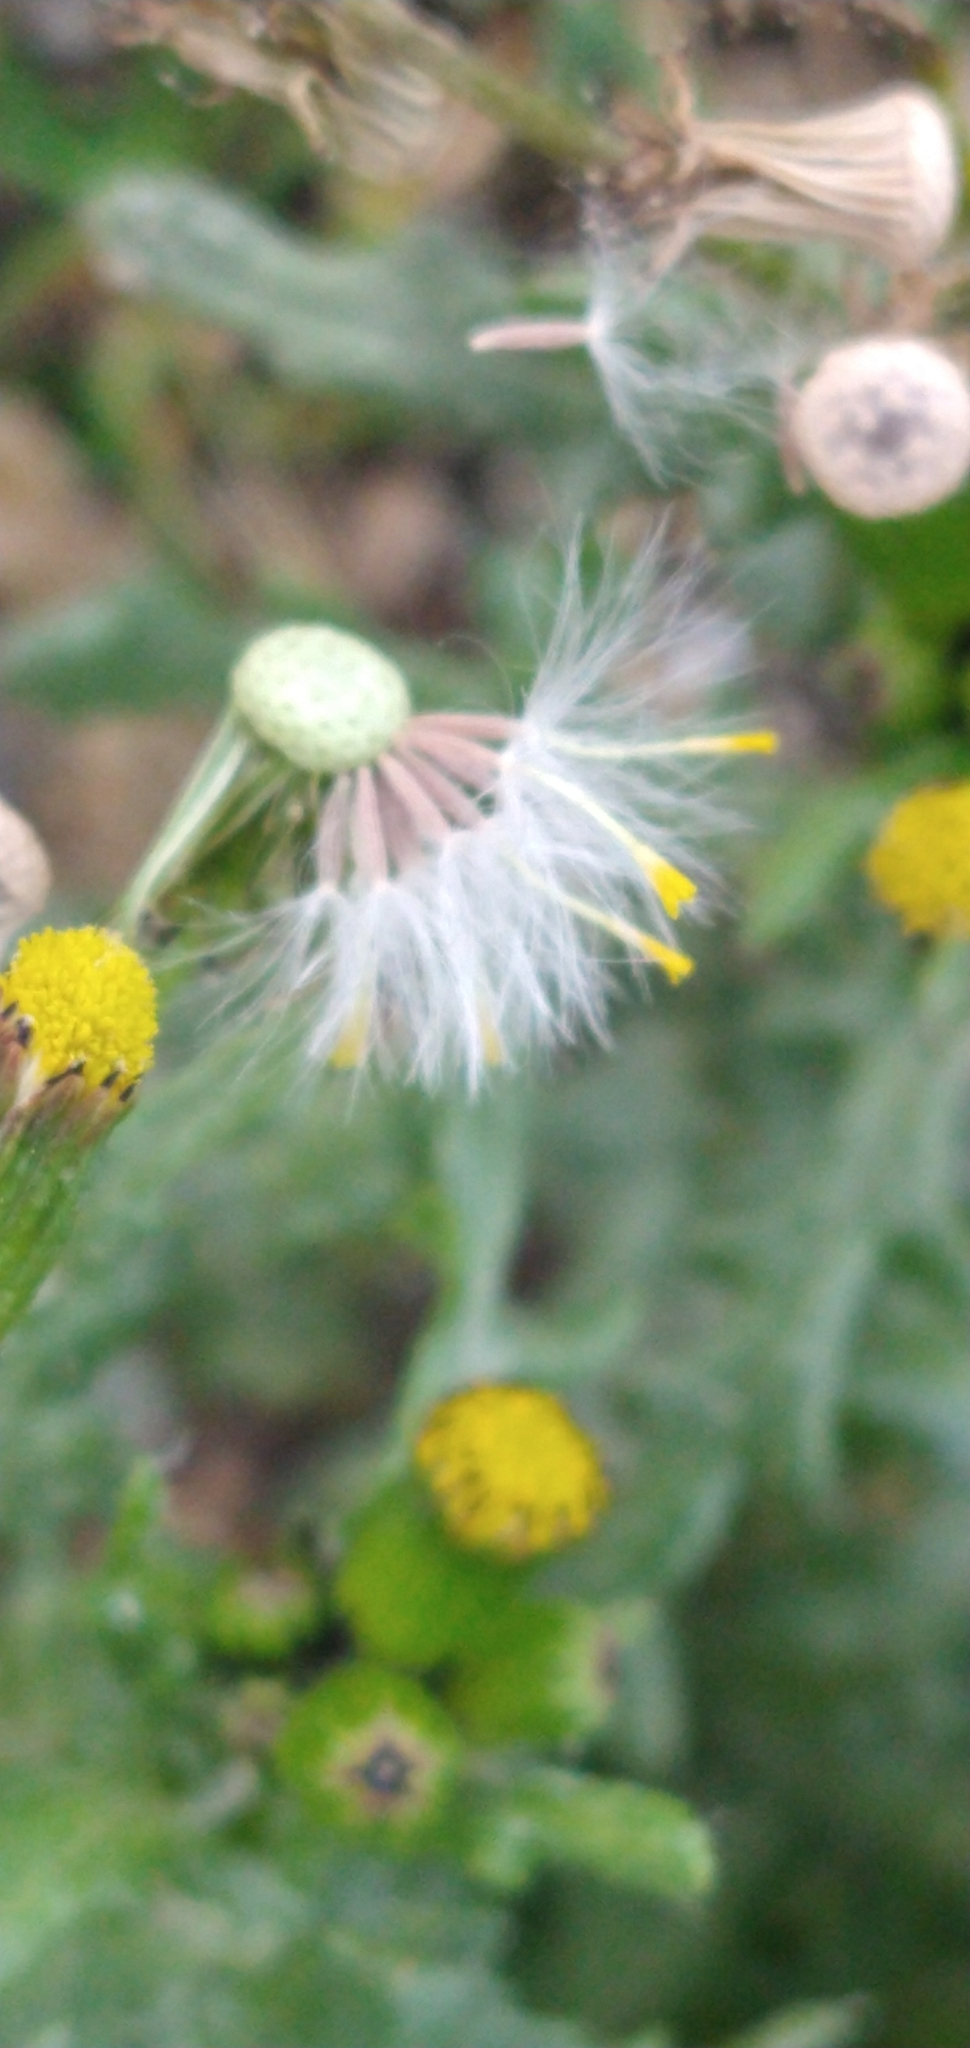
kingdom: Plantae
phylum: Tracheophyta
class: Magnoliopsida
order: Asterales
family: Asteraceae
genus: Senecio
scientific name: Senecio vulgaris
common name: Old-man-in-the-spring
